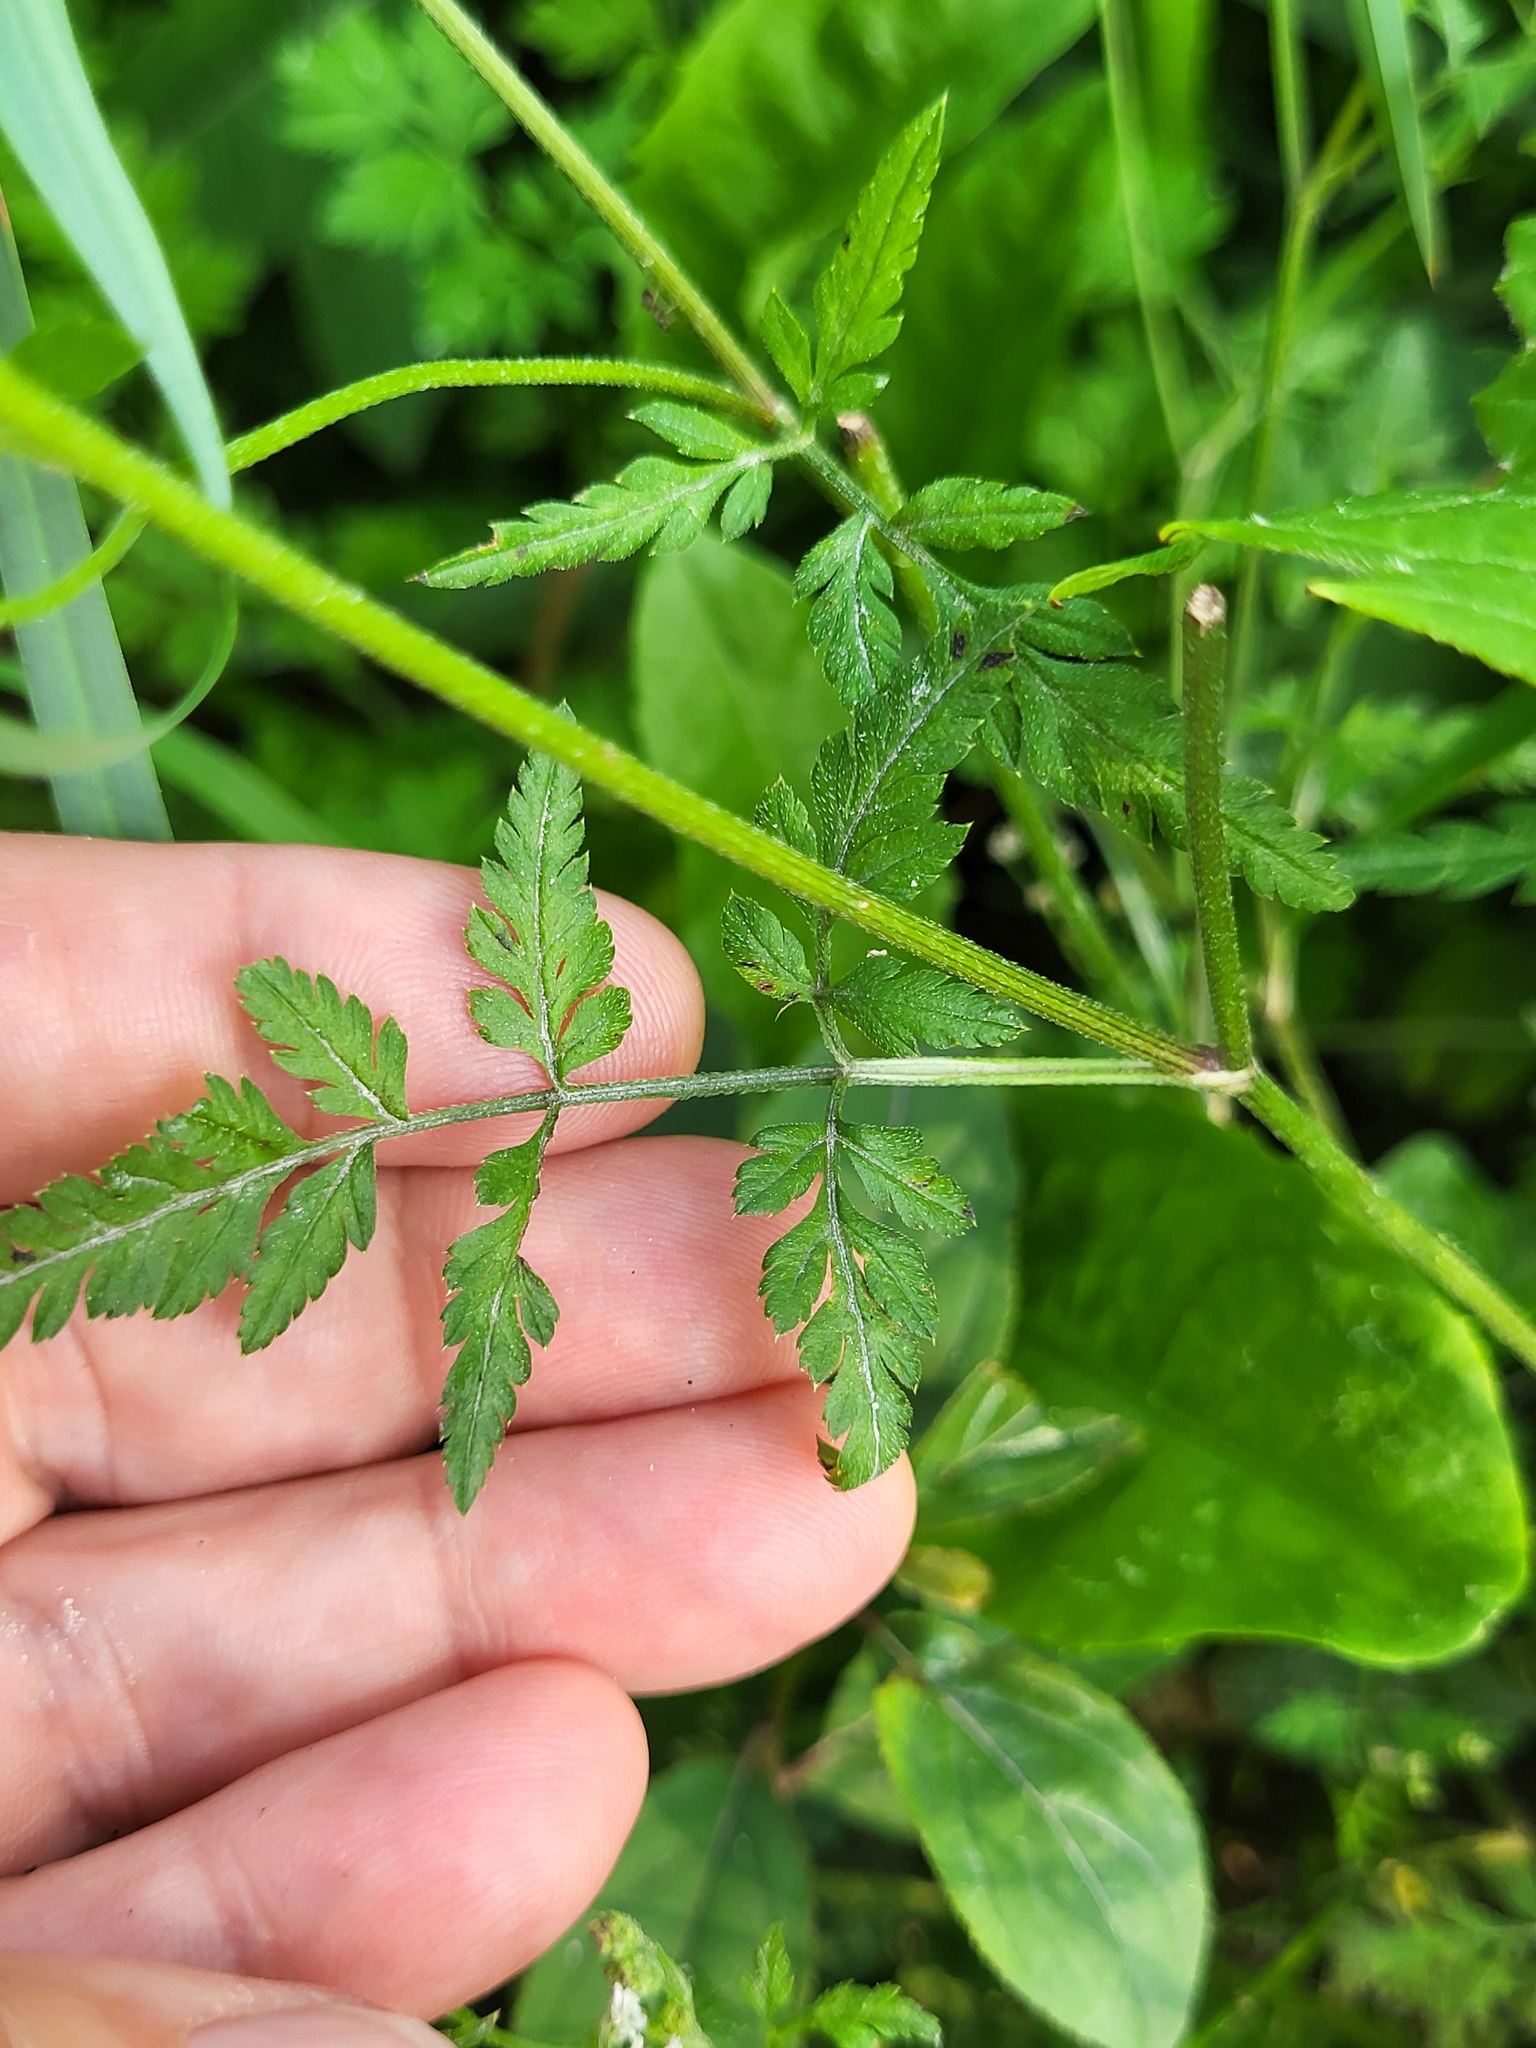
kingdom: Plantae
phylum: Tracheophyta
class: Magnoliopsida
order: Apiales
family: Apiaceae
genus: Torilis
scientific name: Torilis arvensis
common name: Spreading hedge-parsley
